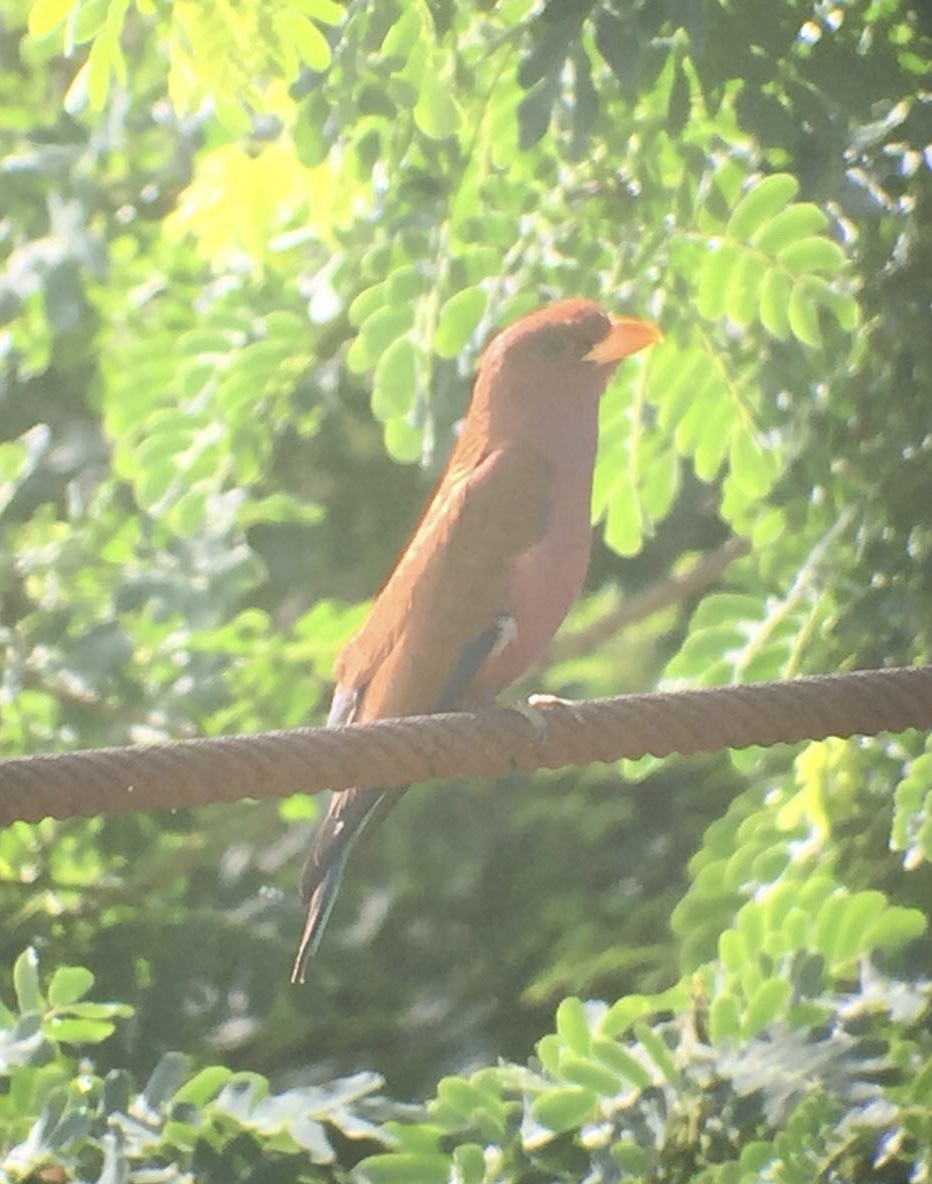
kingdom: Animalia
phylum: Chordata
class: Aves
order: Coraciiformes
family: Coraciidae
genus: Eurystomus
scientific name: Eurystomus glaucurus
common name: Broad-billed roller
